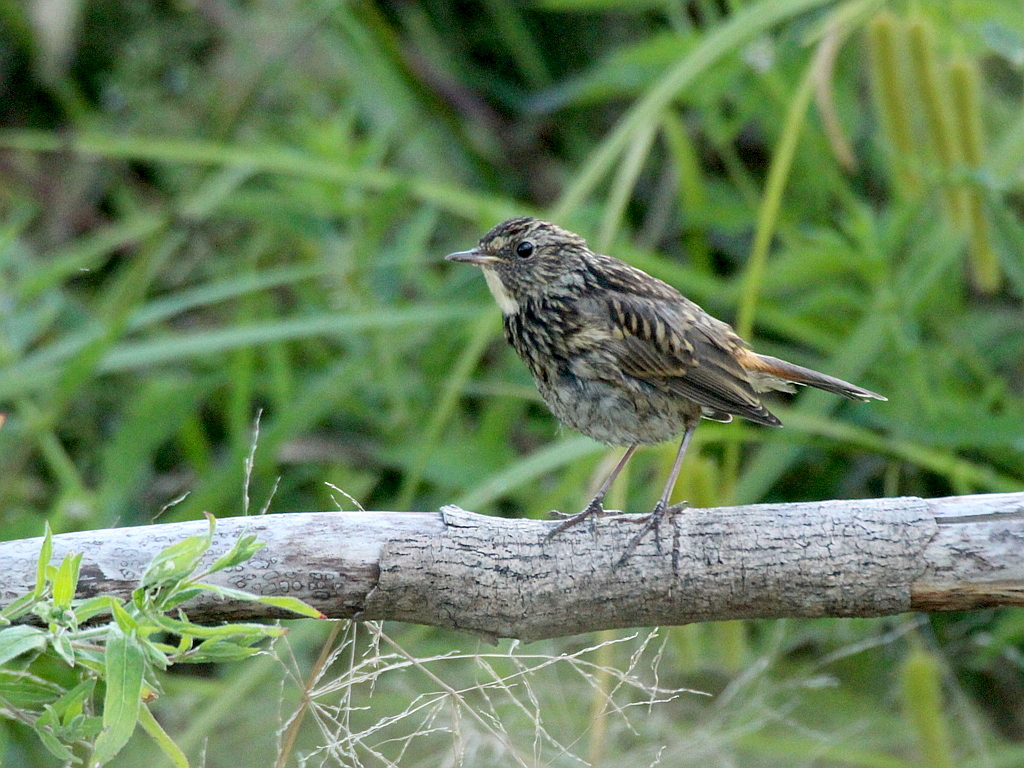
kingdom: Animalia
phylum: Chordata
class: Aves
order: Passeriformes
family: Muscicapidae
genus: Luscinia
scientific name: Luscinia svecica
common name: Bluethroat
